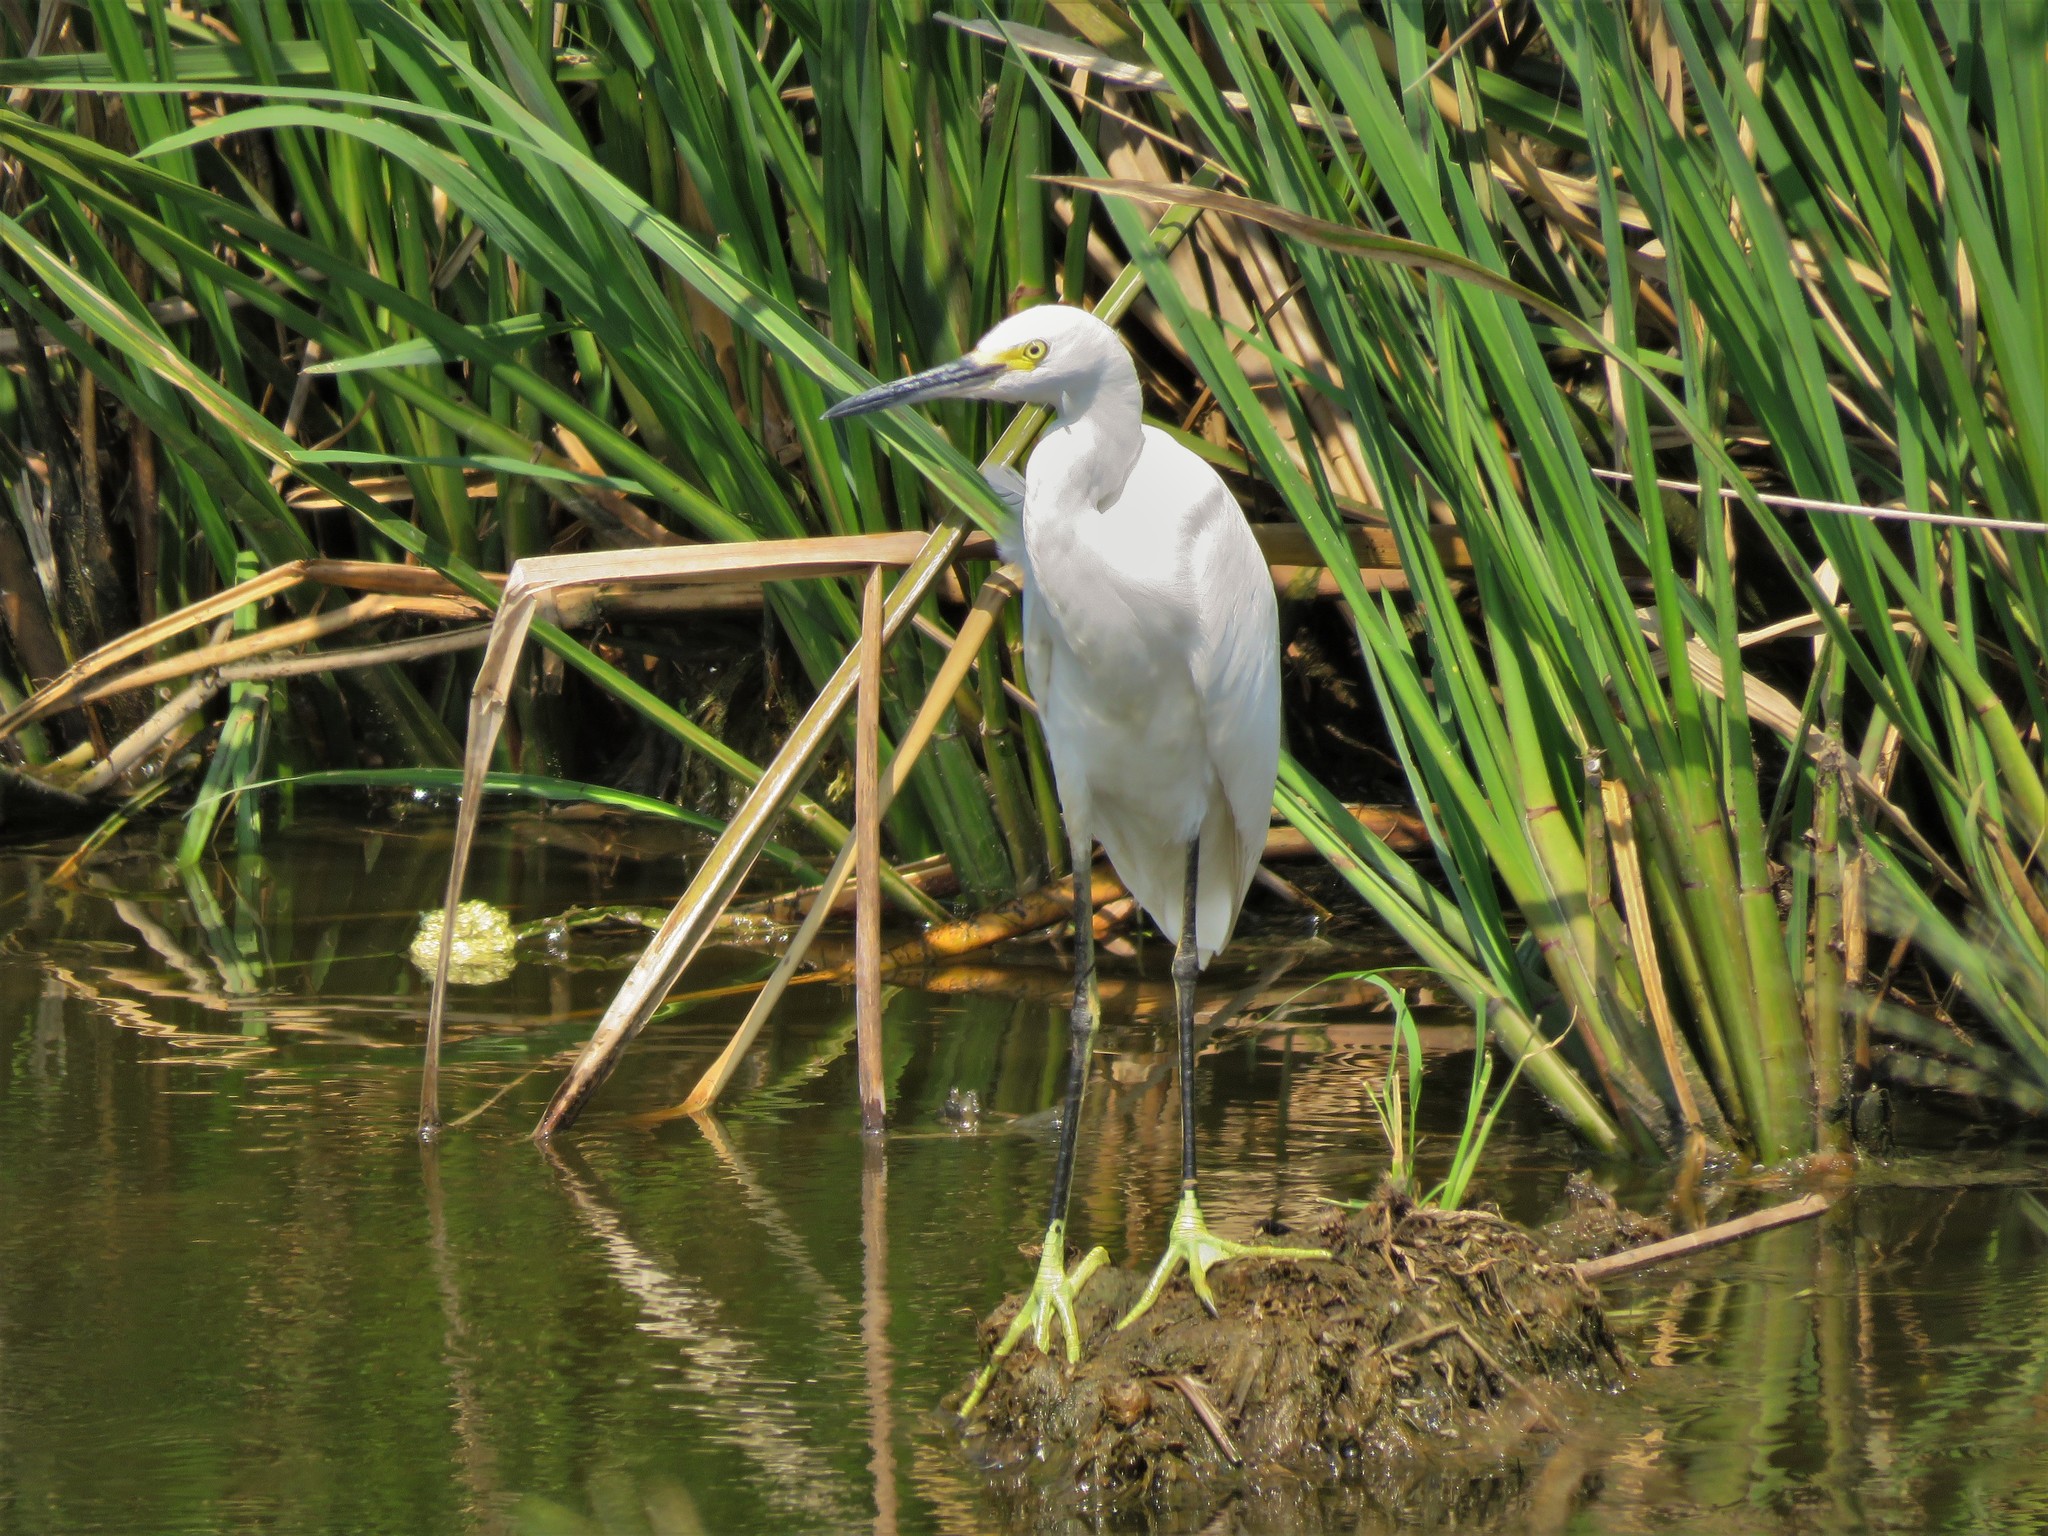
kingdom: Animalia
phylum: Chordata
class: Aves
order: Pelecaniformes
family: Ardeidae
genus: Egretta
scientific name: Egretta thula
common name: Snowy egret
